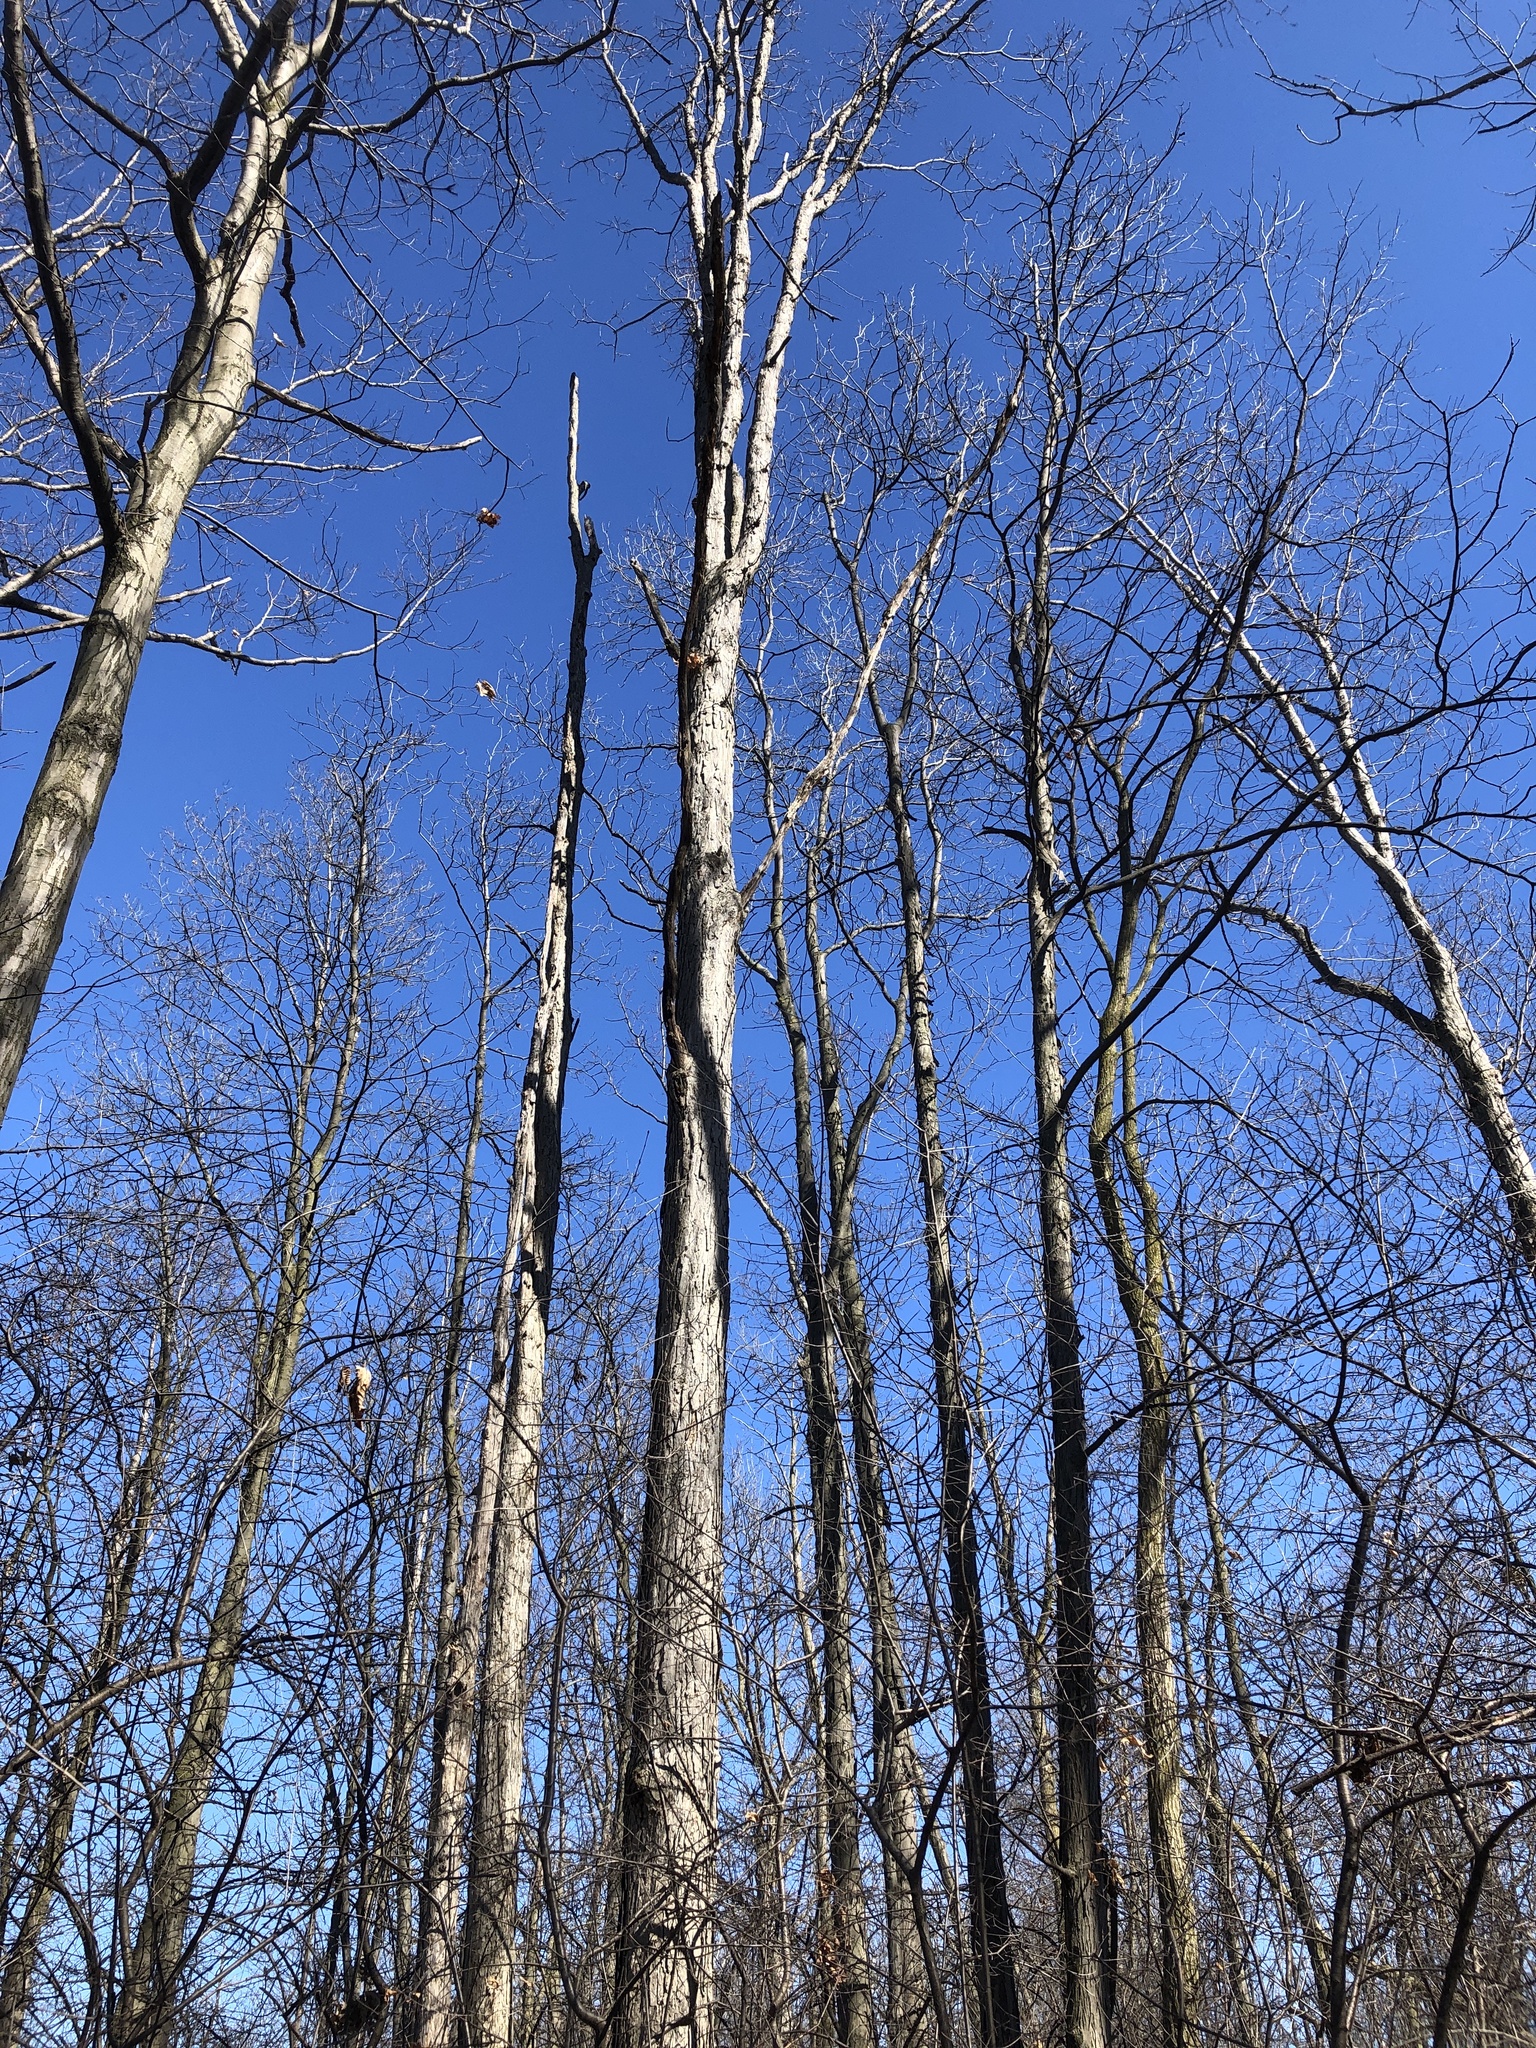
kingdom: Plantae
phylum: Tracheophyta
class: Magnoliopsida
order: Fagales
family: Fagaceae
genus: Quercus
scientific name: Quercus alba
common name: White oak
